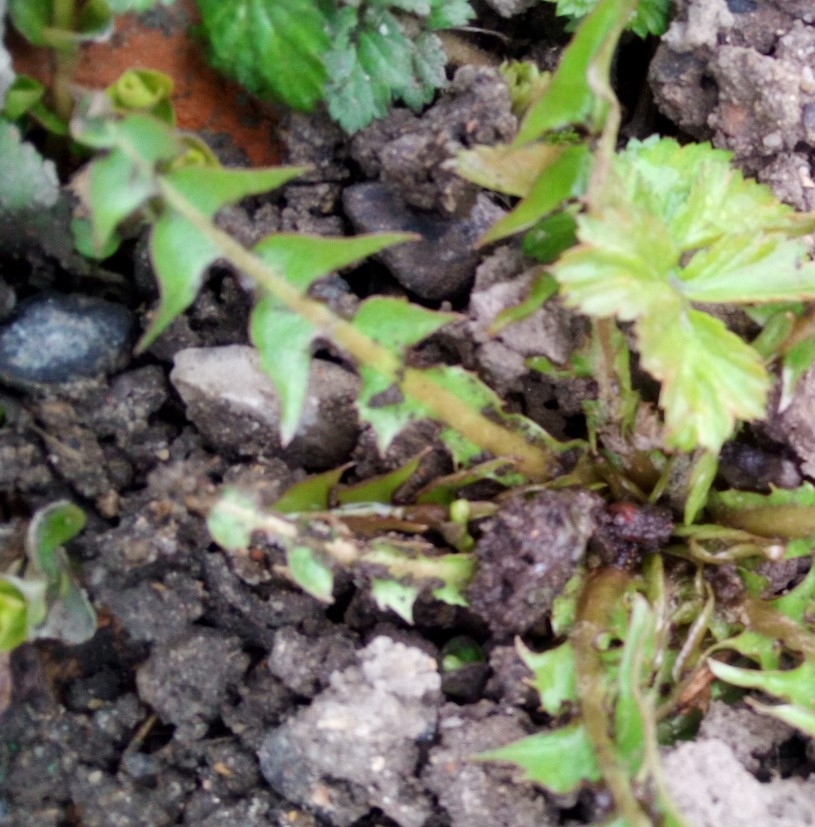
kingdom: Plantae
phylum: Tracheophyta
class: Magnoliopsida
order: Asterales
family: Asteraceae
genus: Taraxacum
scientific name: Taraxacum officinale
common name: Common dandelion
